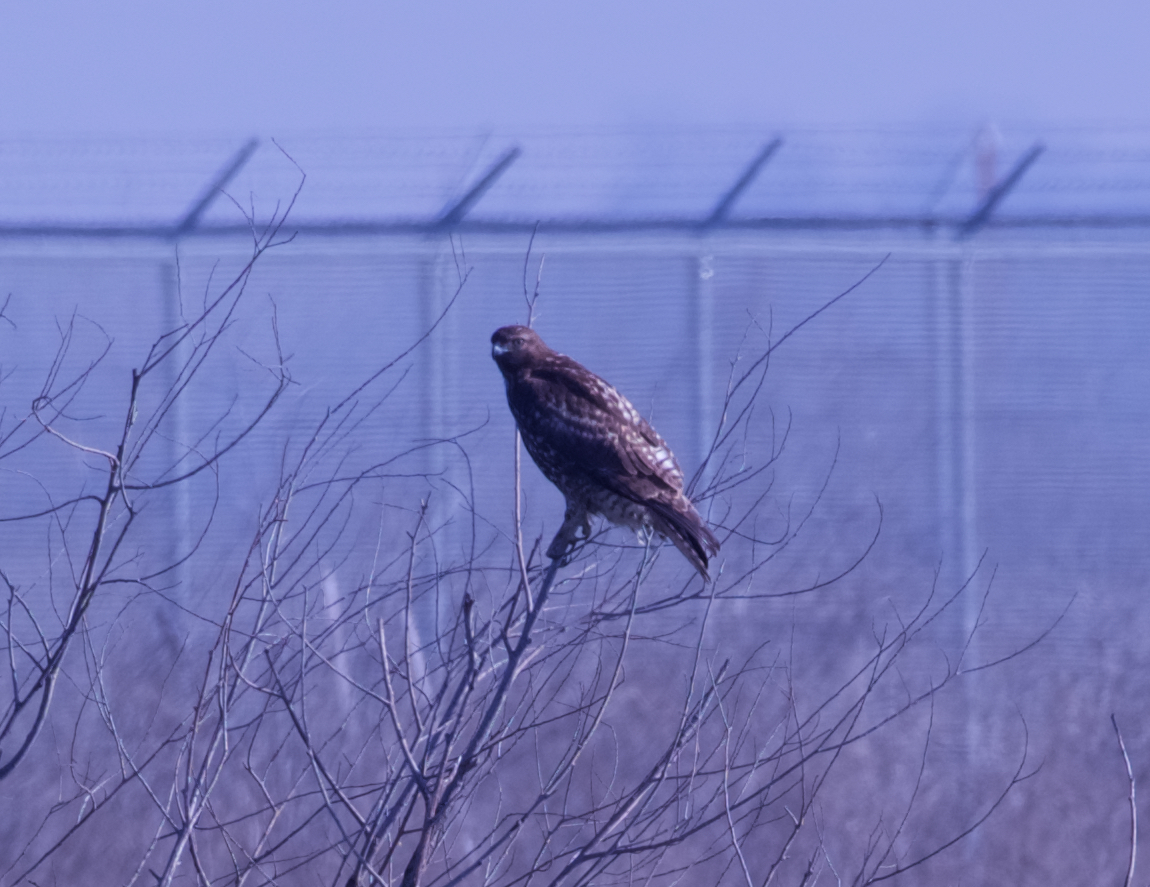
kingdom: Animalia
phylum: Chordata
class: Aves
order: Accipitriformes
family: Accipitridae
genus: Buteo
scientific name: Buteo jamaicensis
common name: Red-tailed hawk
